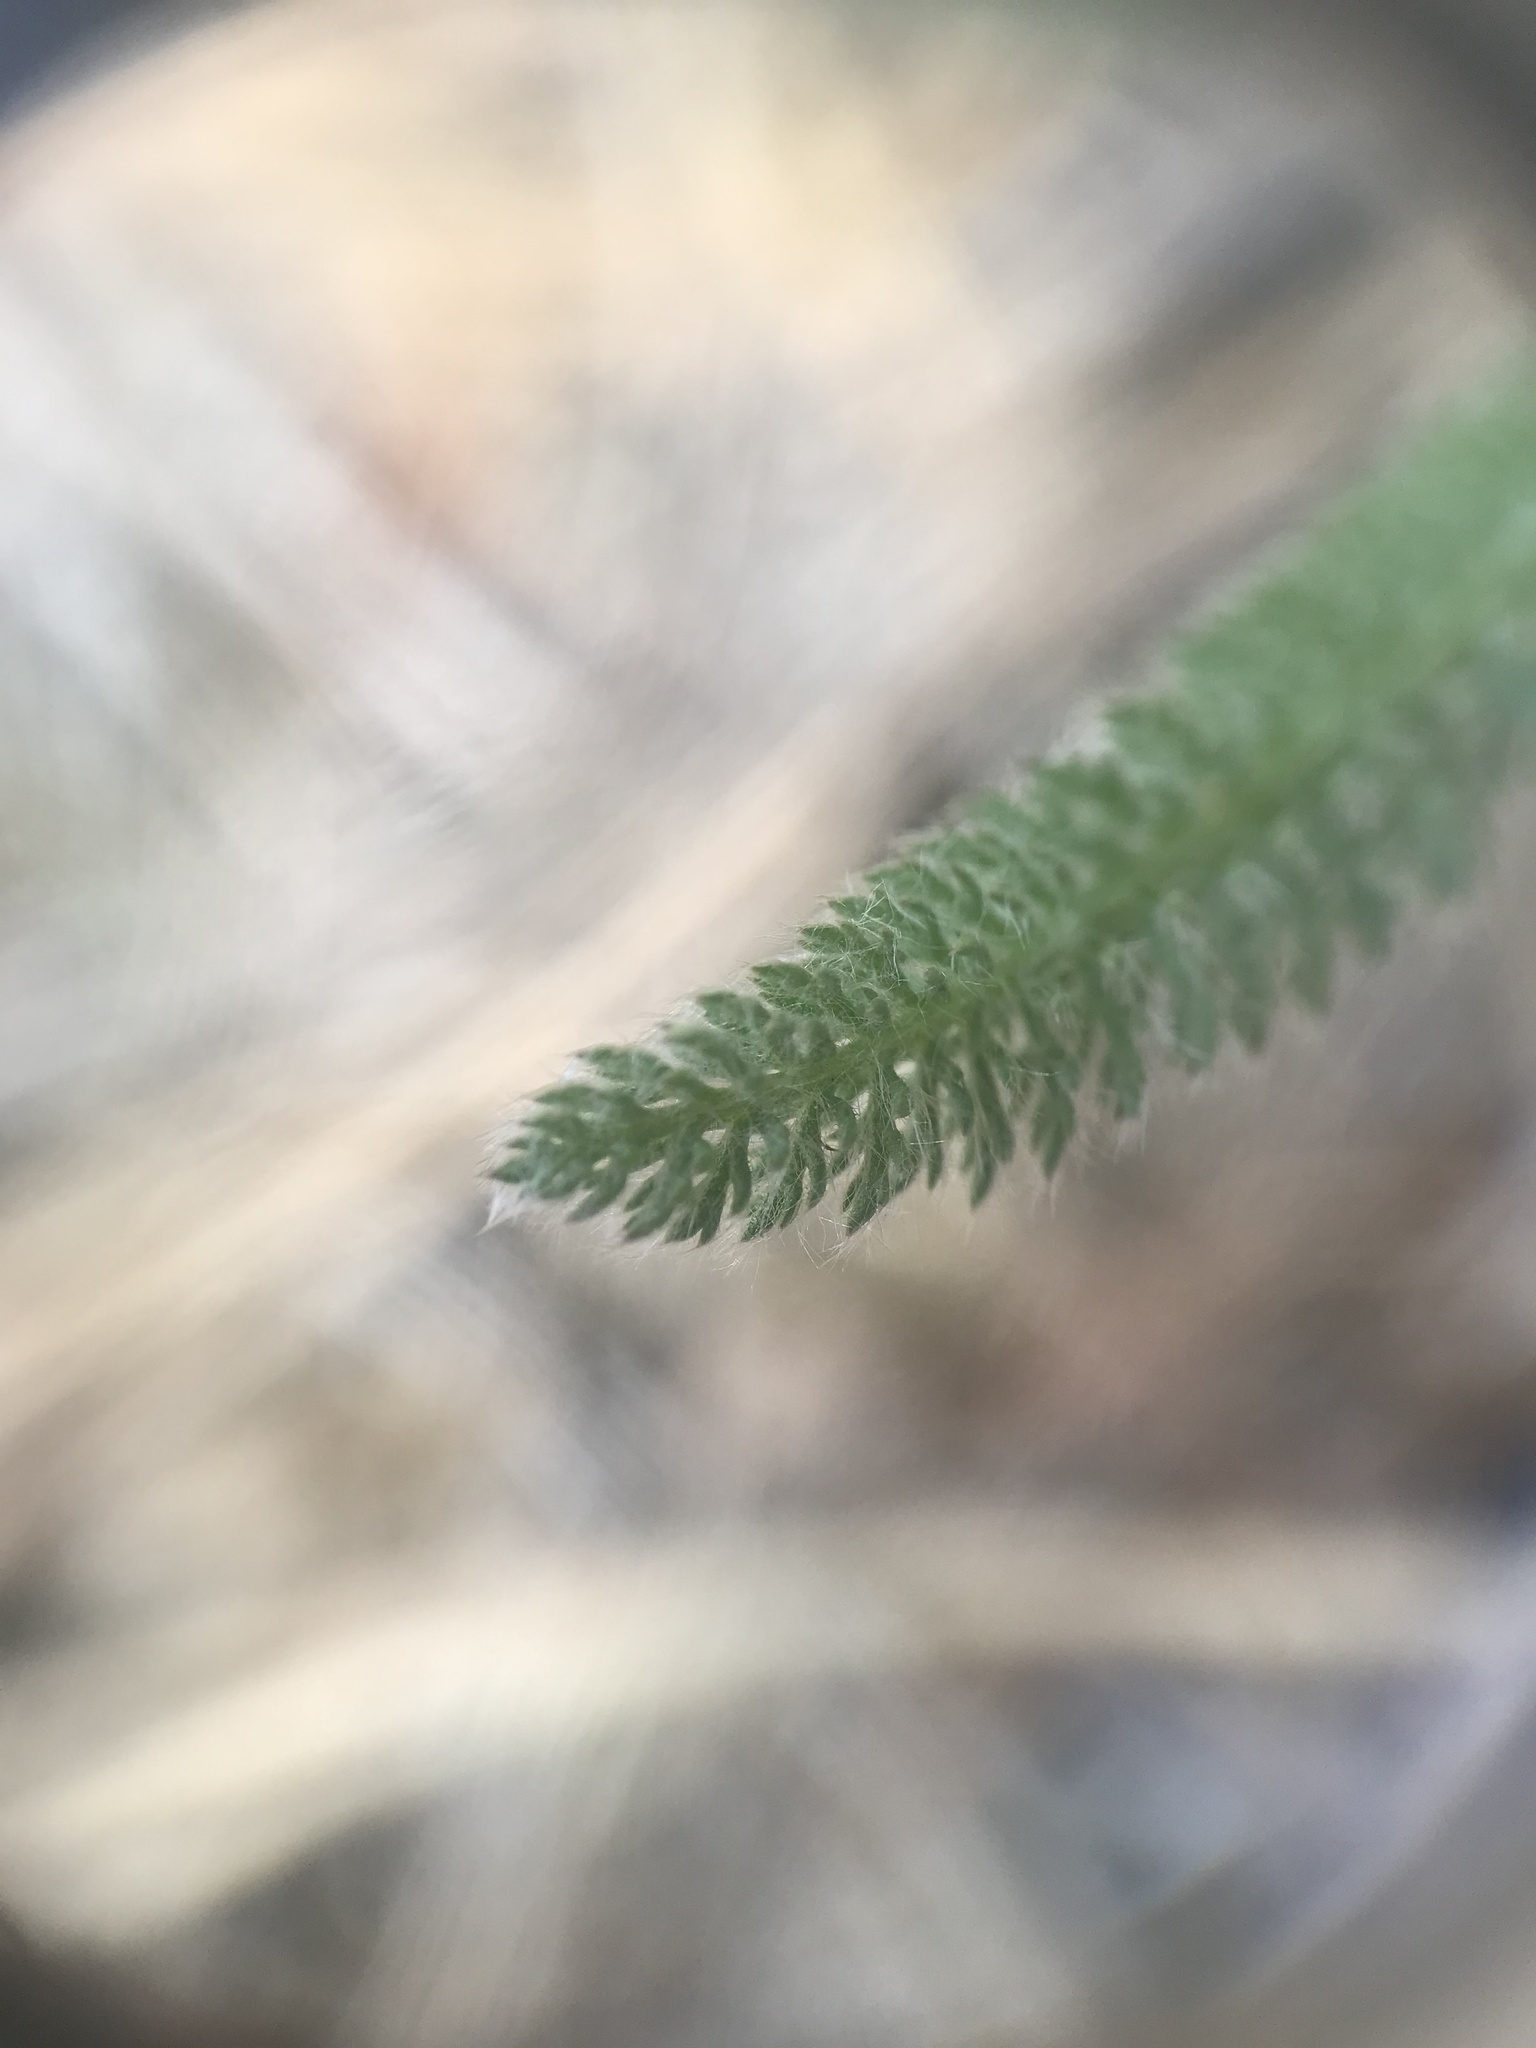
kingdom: Plantae
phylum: Tracheophyta
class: Magnoliopsida
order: Asterales
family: Asteraceae
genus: Achillea
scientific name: Achillea millefolium
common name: Yarrow
